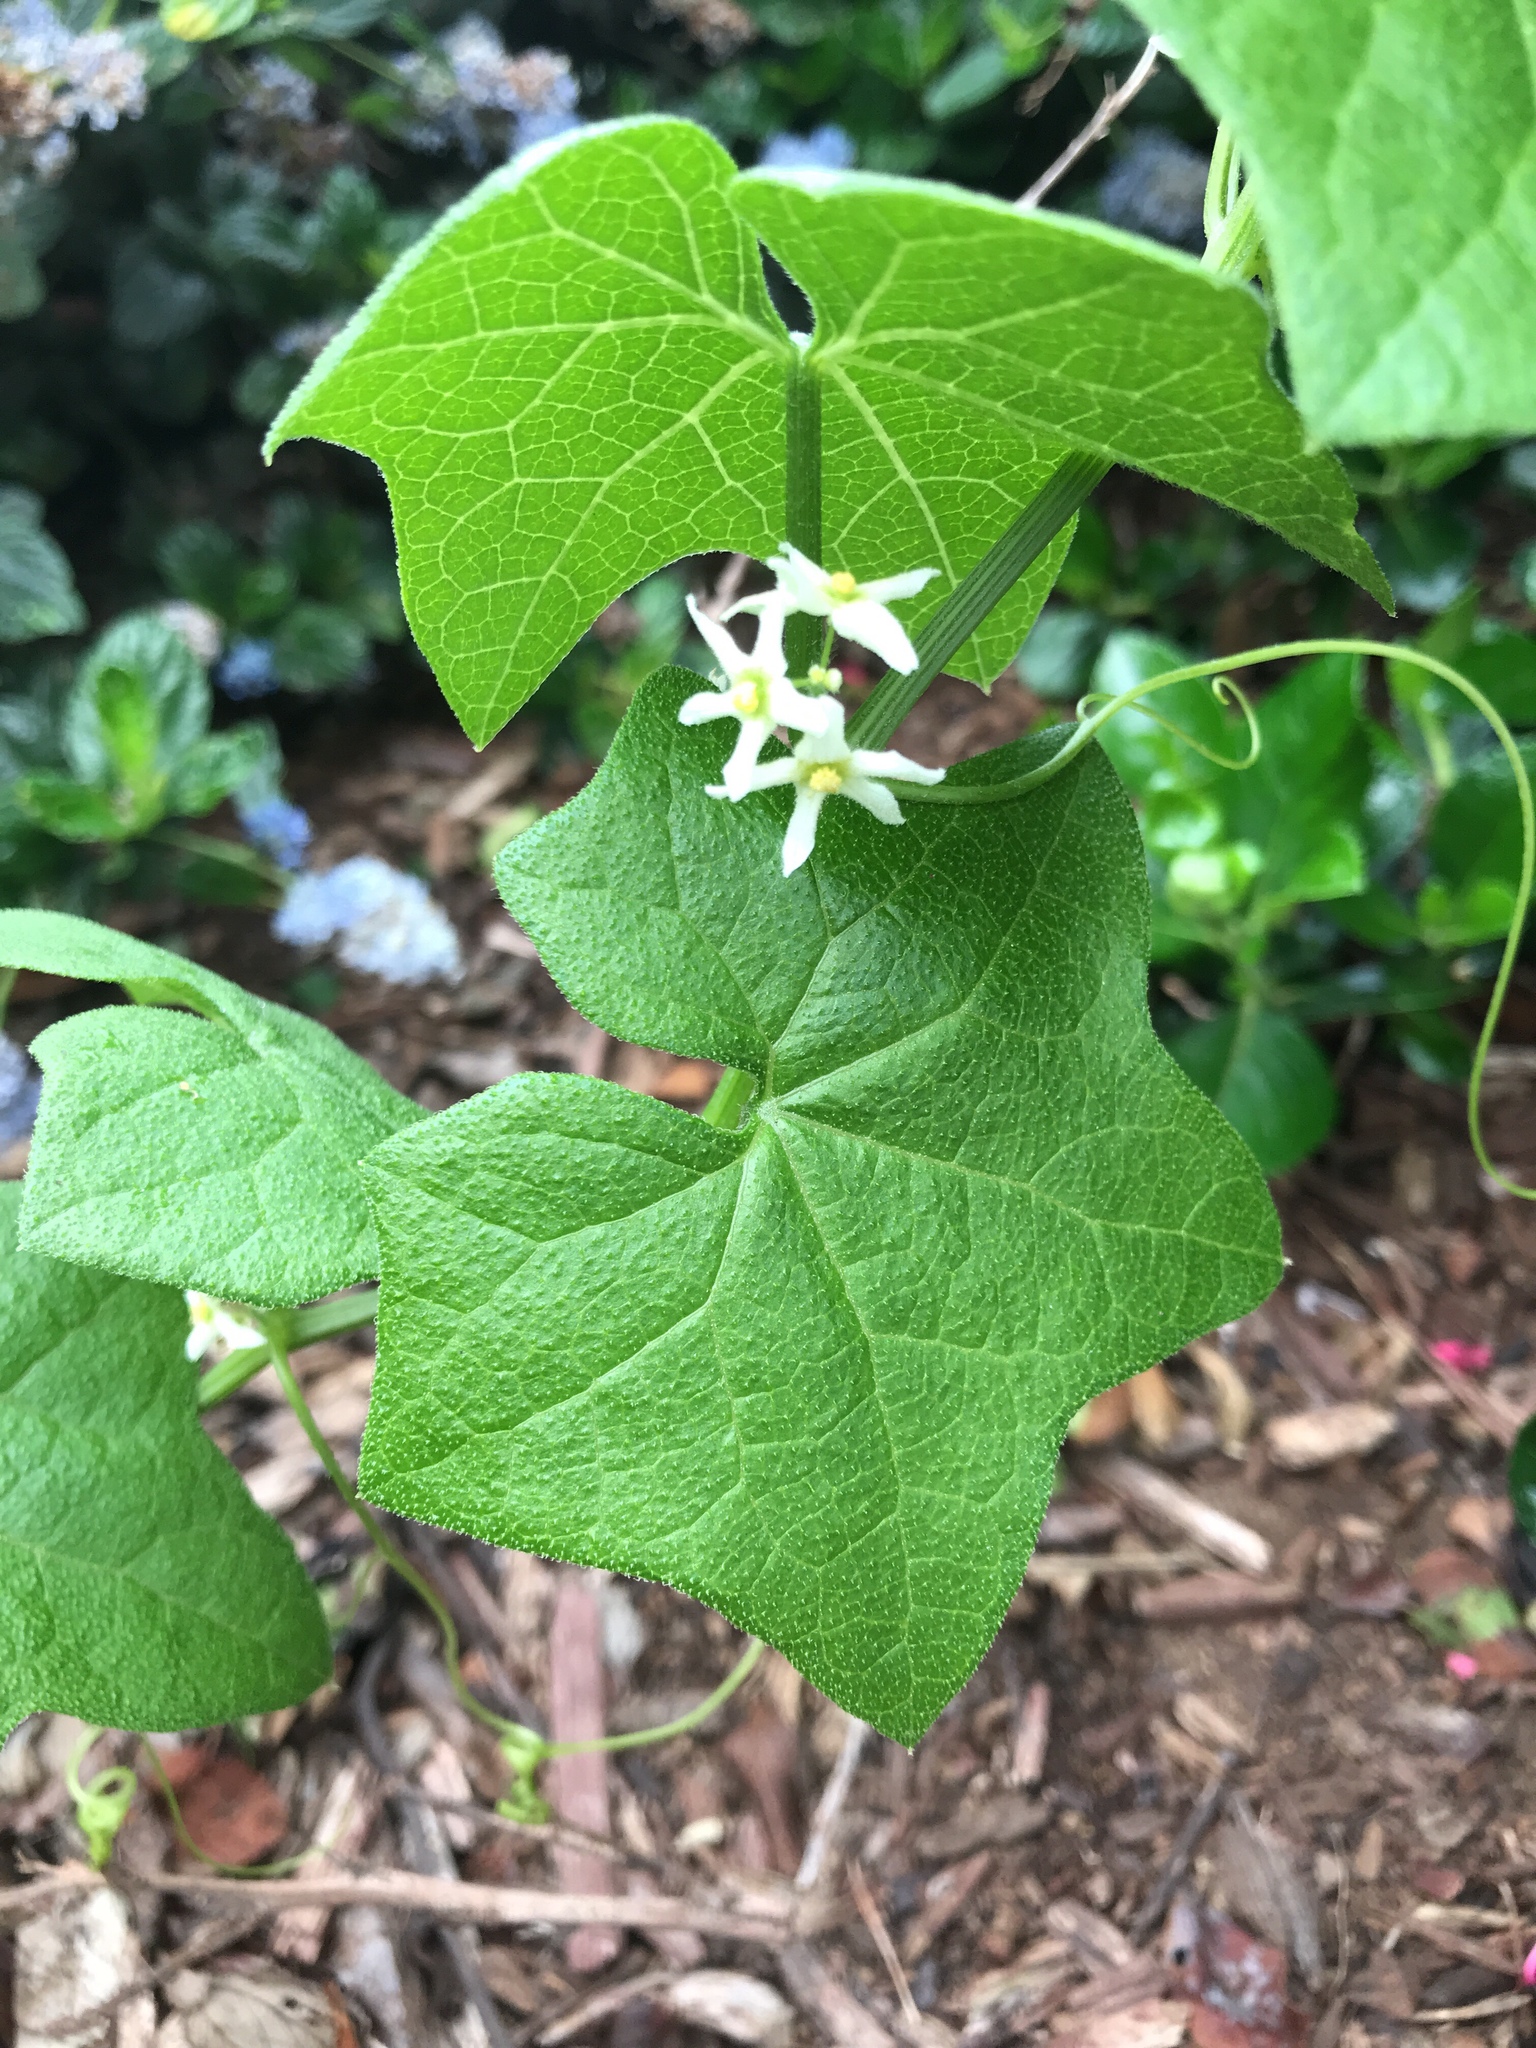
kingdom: Plantae
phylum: Tracheophyta
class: Magnoliopsida
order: Cucurbitales
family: Cucurbitaceae
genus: Marah
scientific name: Marah fabacea
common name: California manroot
